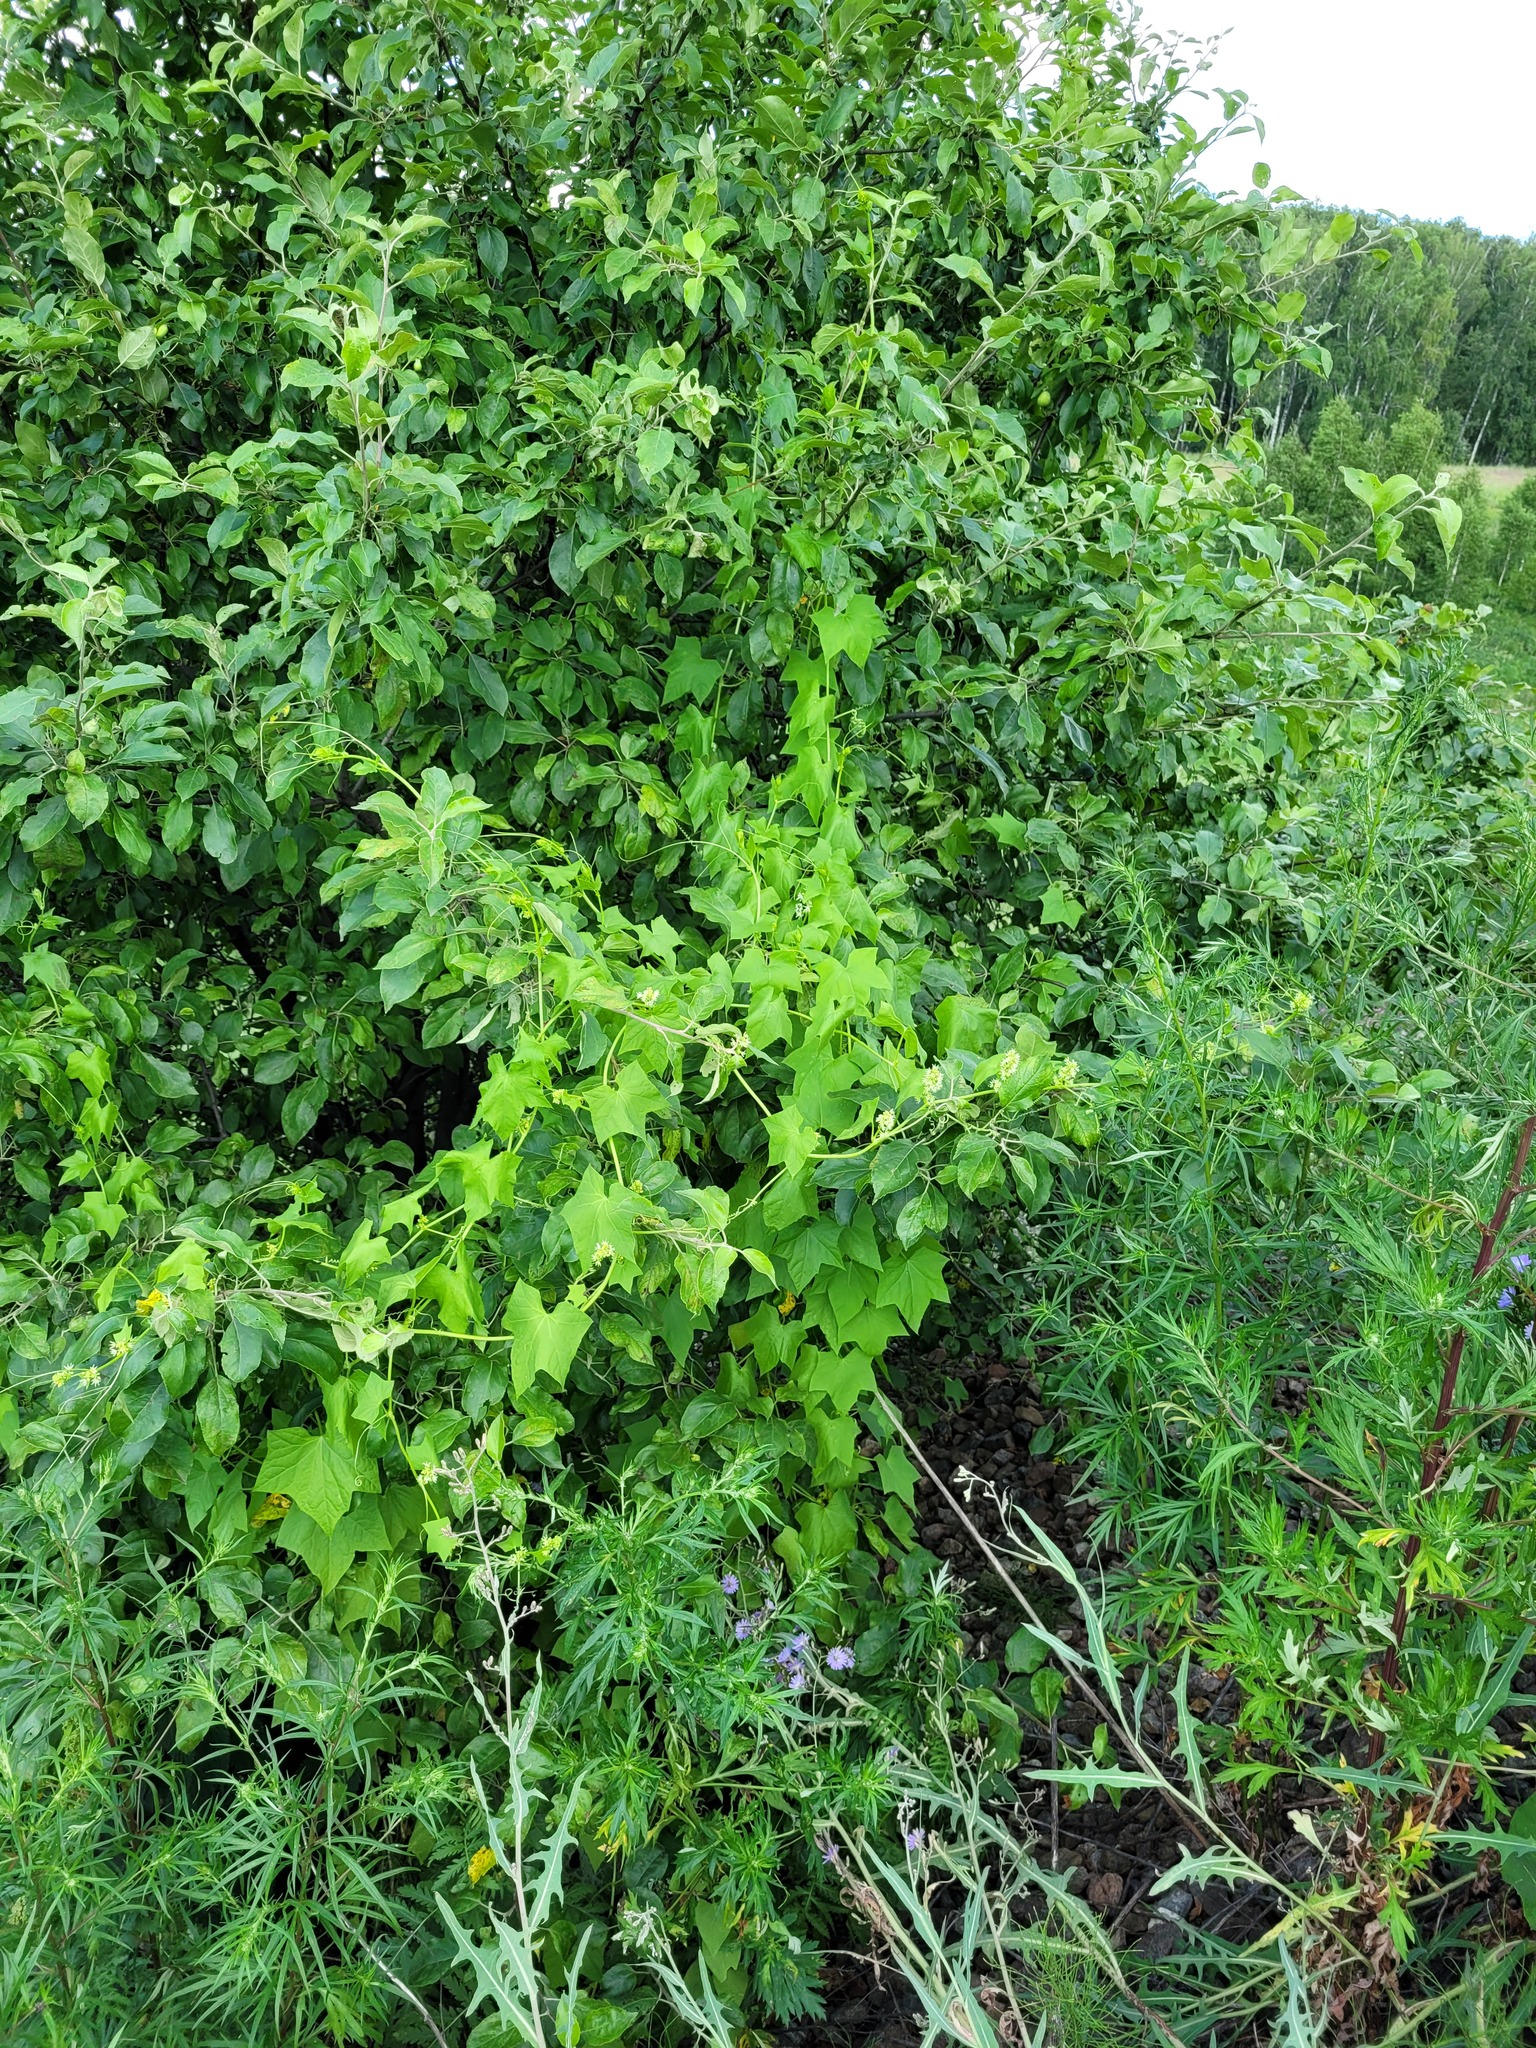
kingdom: Plantae
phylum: Tracheophyta
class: Magnoliopsida
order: Cucurbitales
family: Cucurbitaceae
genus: Echinocystis
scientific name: Echinocystis lobata
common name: Wild cucumber
